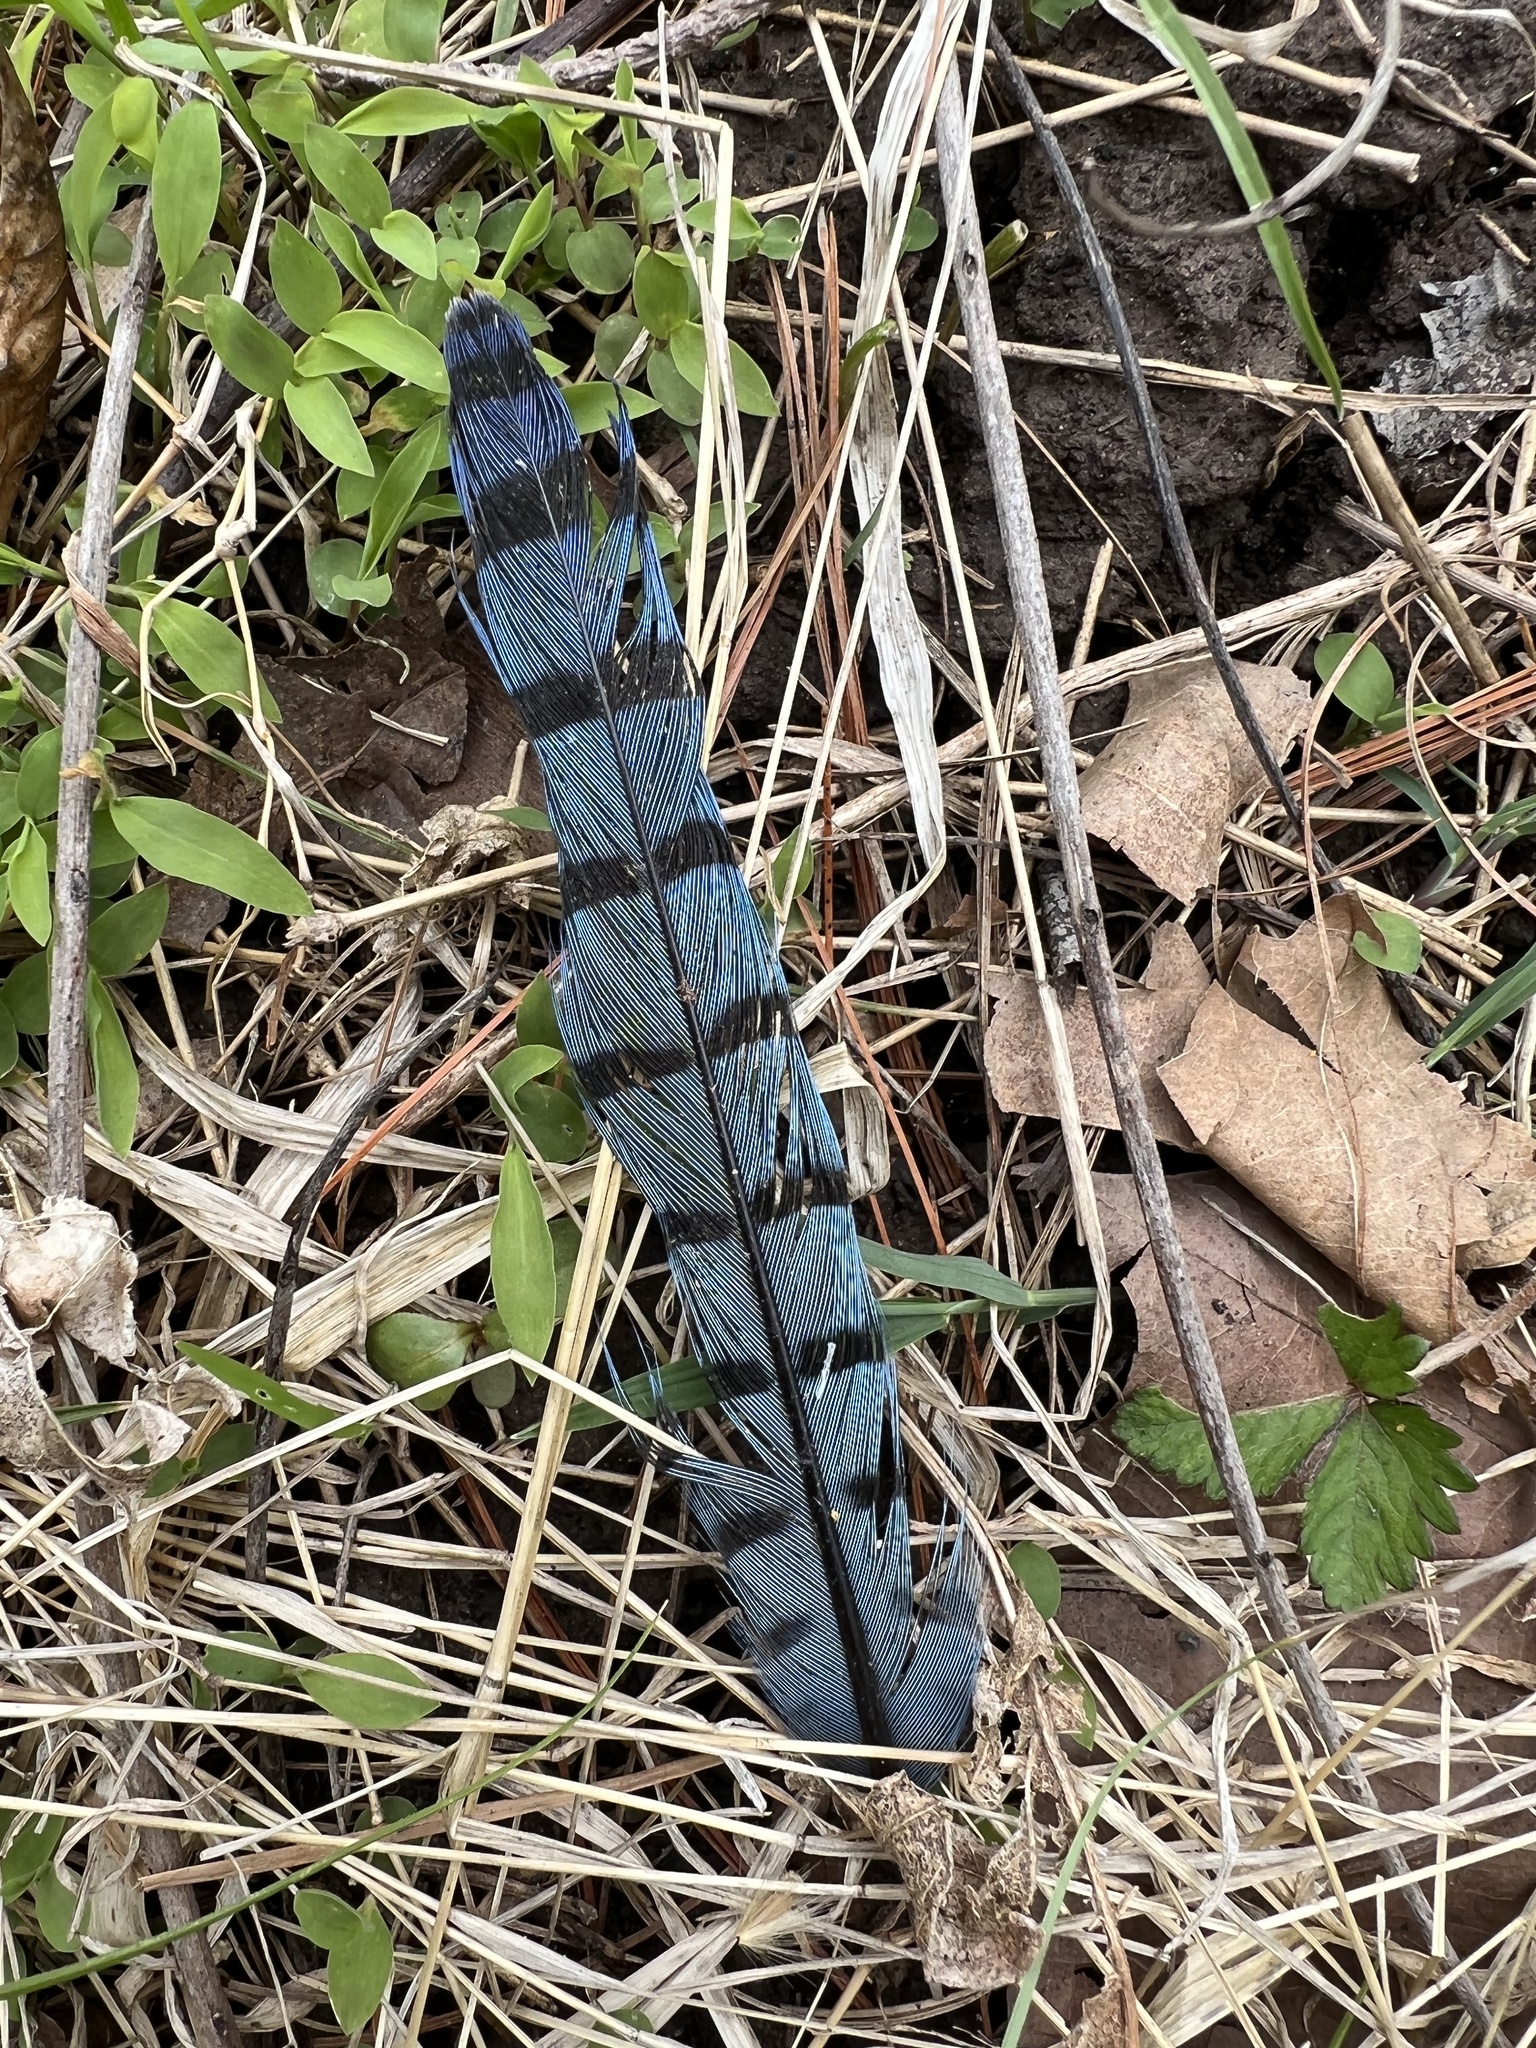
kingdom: Animalia
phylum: Chordata
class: Aves
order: Passeriformes
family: Corvidae
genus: Cyanocitta
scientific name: Cyanocitta cristata
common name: Blue jay
